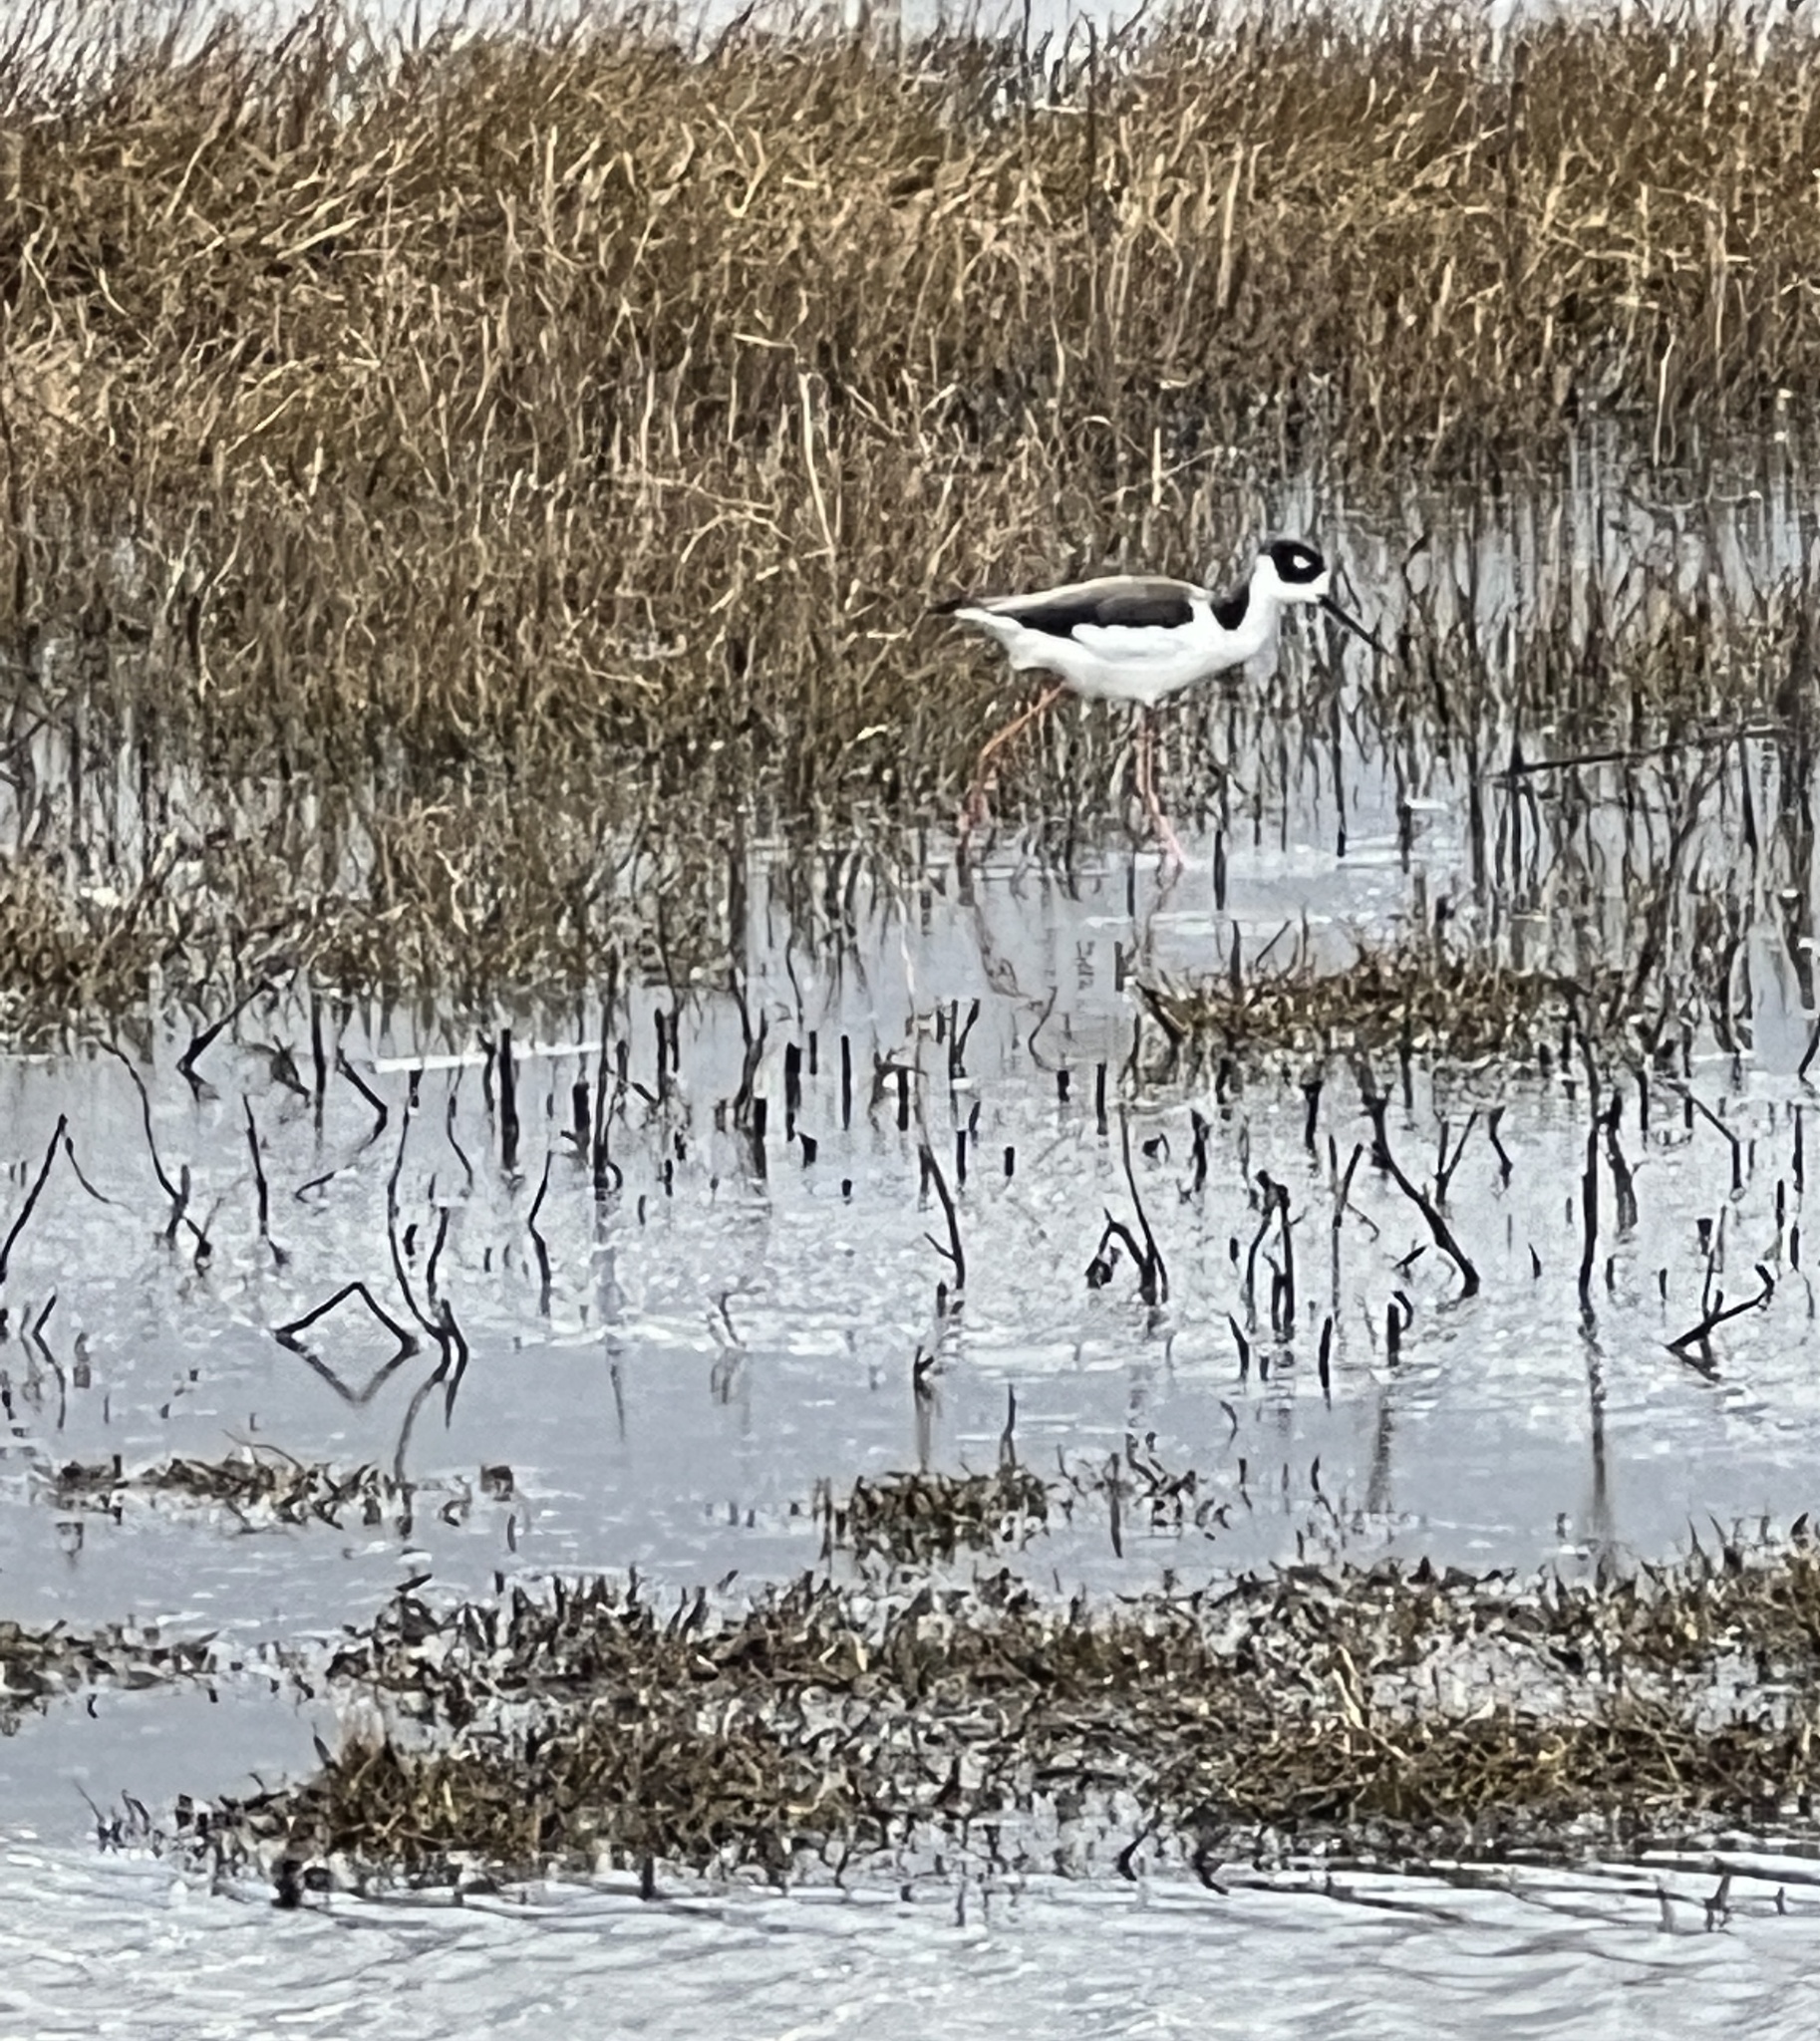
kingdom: Animalia
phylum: Chordata
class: Aves
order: Charadriiformes
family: Recurvirostridae
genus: Himantopus
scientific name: Himantopus mexicanus
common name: Black-necked stilt
